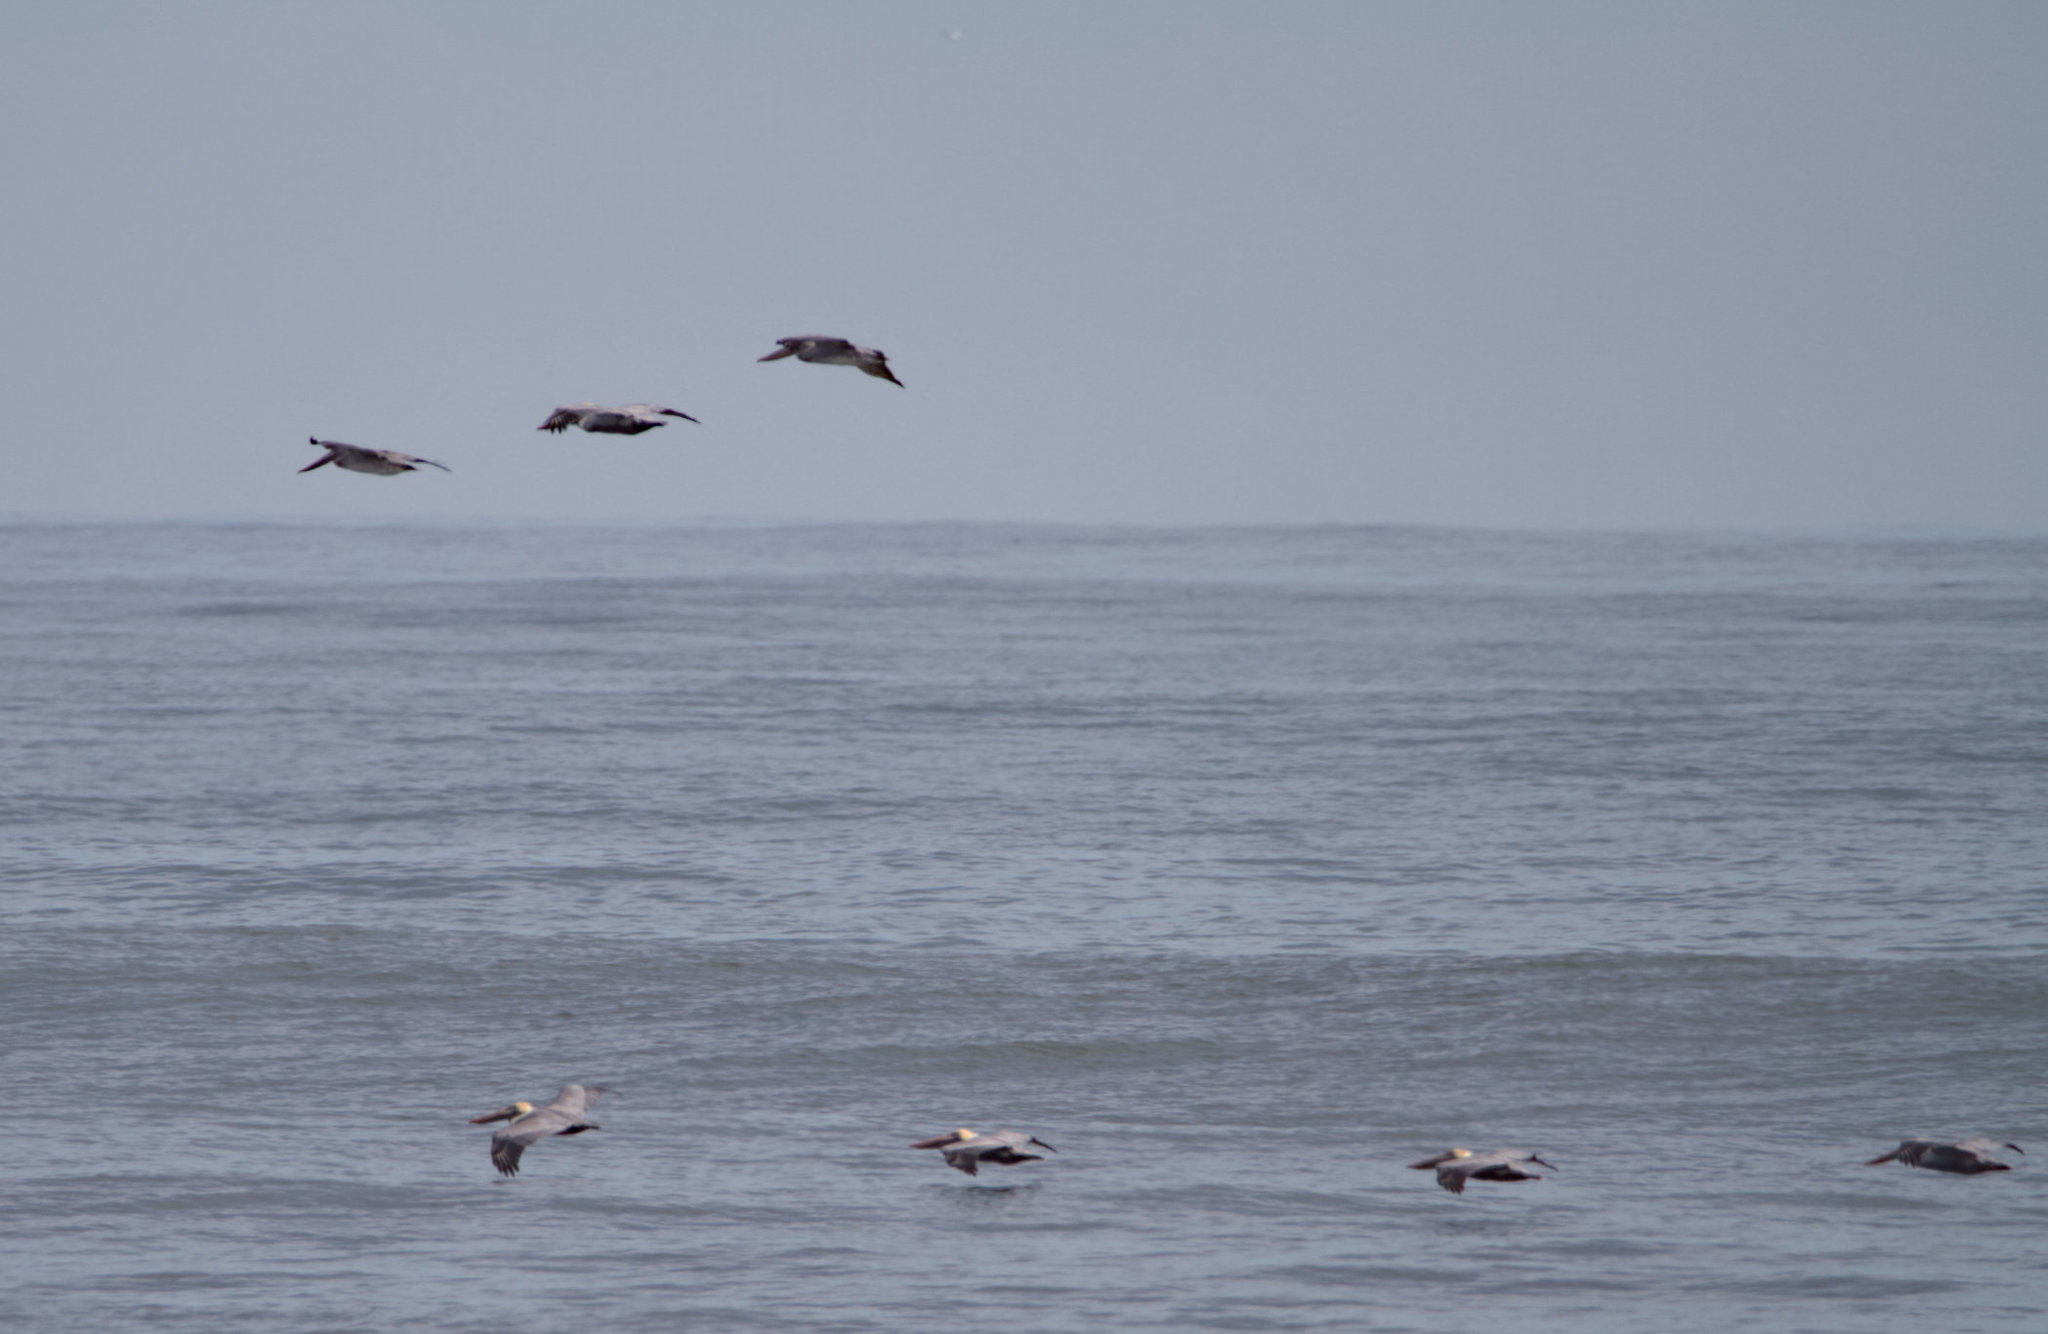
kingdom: Animalia
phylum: Chordata
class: Aves
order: Pelecaniformes
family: Pelecanidae
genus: Pelecanus
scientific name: Pelecanus occidentalis
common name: Brown pelican
